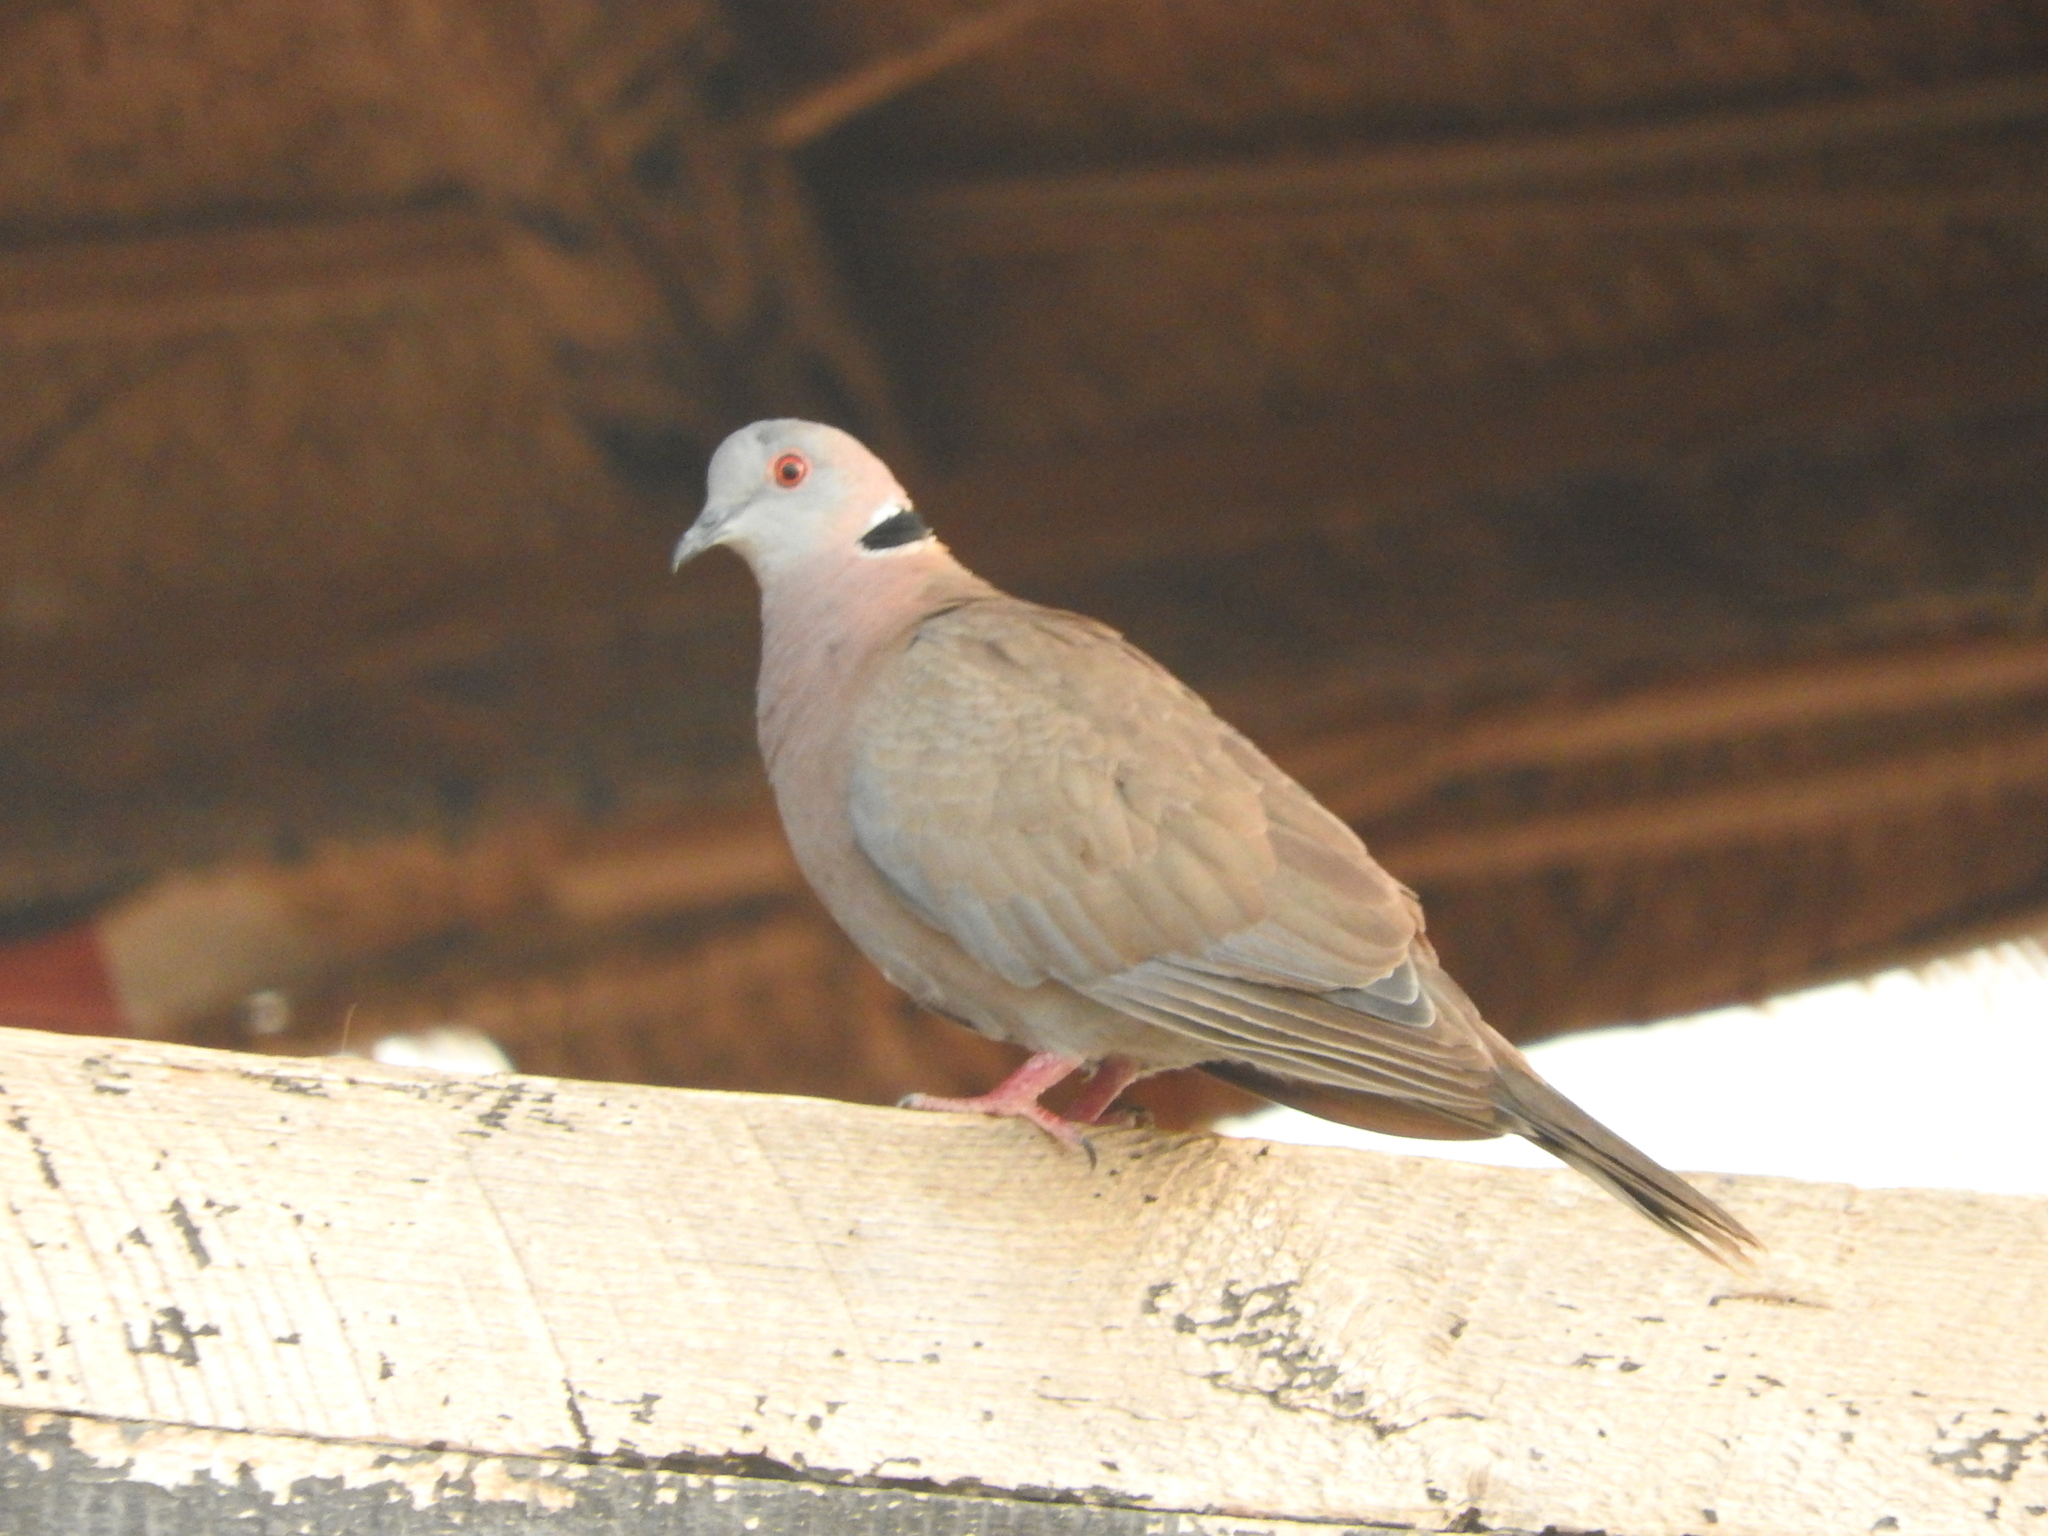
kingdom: Animalia
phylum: Chordata
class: Aves
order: Columbiformes
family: Columbidae
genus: Streptopelia
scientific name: Streptopelia decipiens
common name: Mourning collared dove
